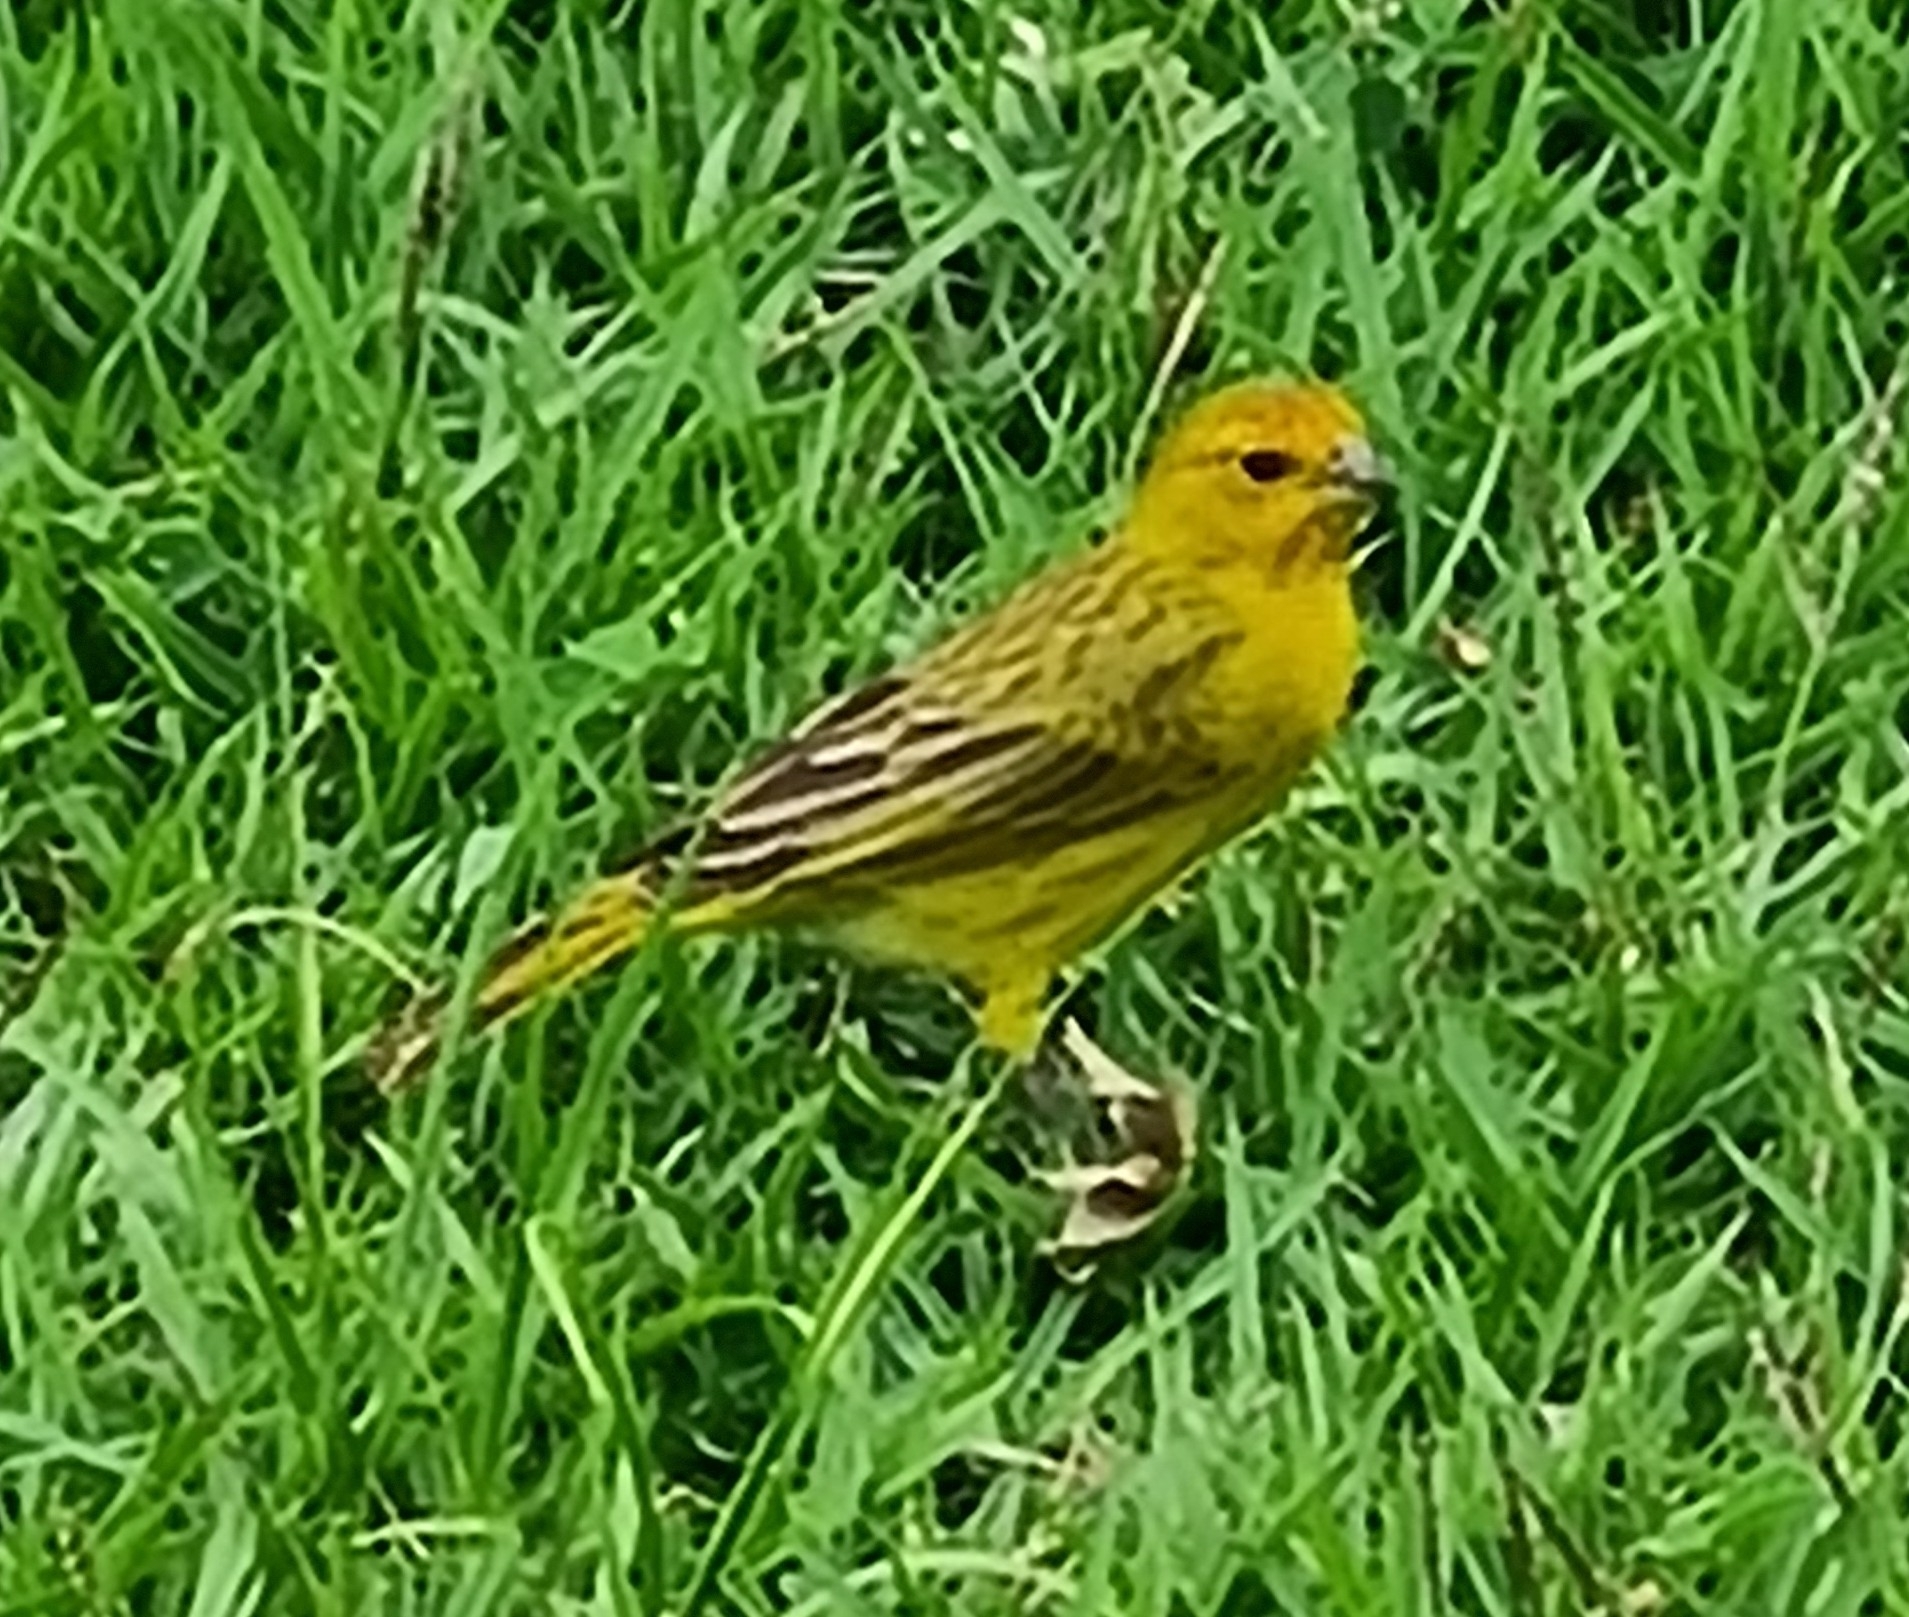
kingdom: Animalia
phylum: Chordata
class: Aves
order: Passeriformes
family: Thraupidae
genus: Sicalis
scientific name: Sicalis flaveola
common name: Saffron finch
